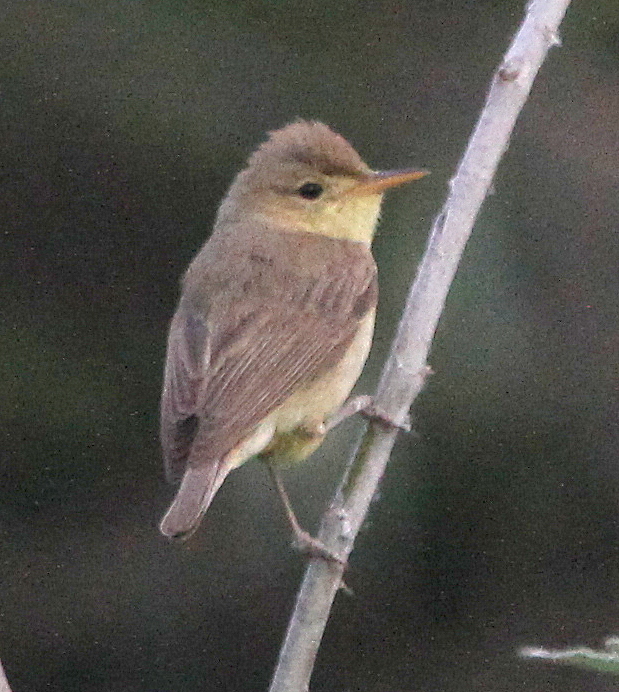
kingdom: Animalia
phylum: Chordata
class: Aves
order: Passeriformes
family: Acrocephalidae
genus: Hippolais
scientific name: Hippolais polyglotta
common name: Melodious warbler
